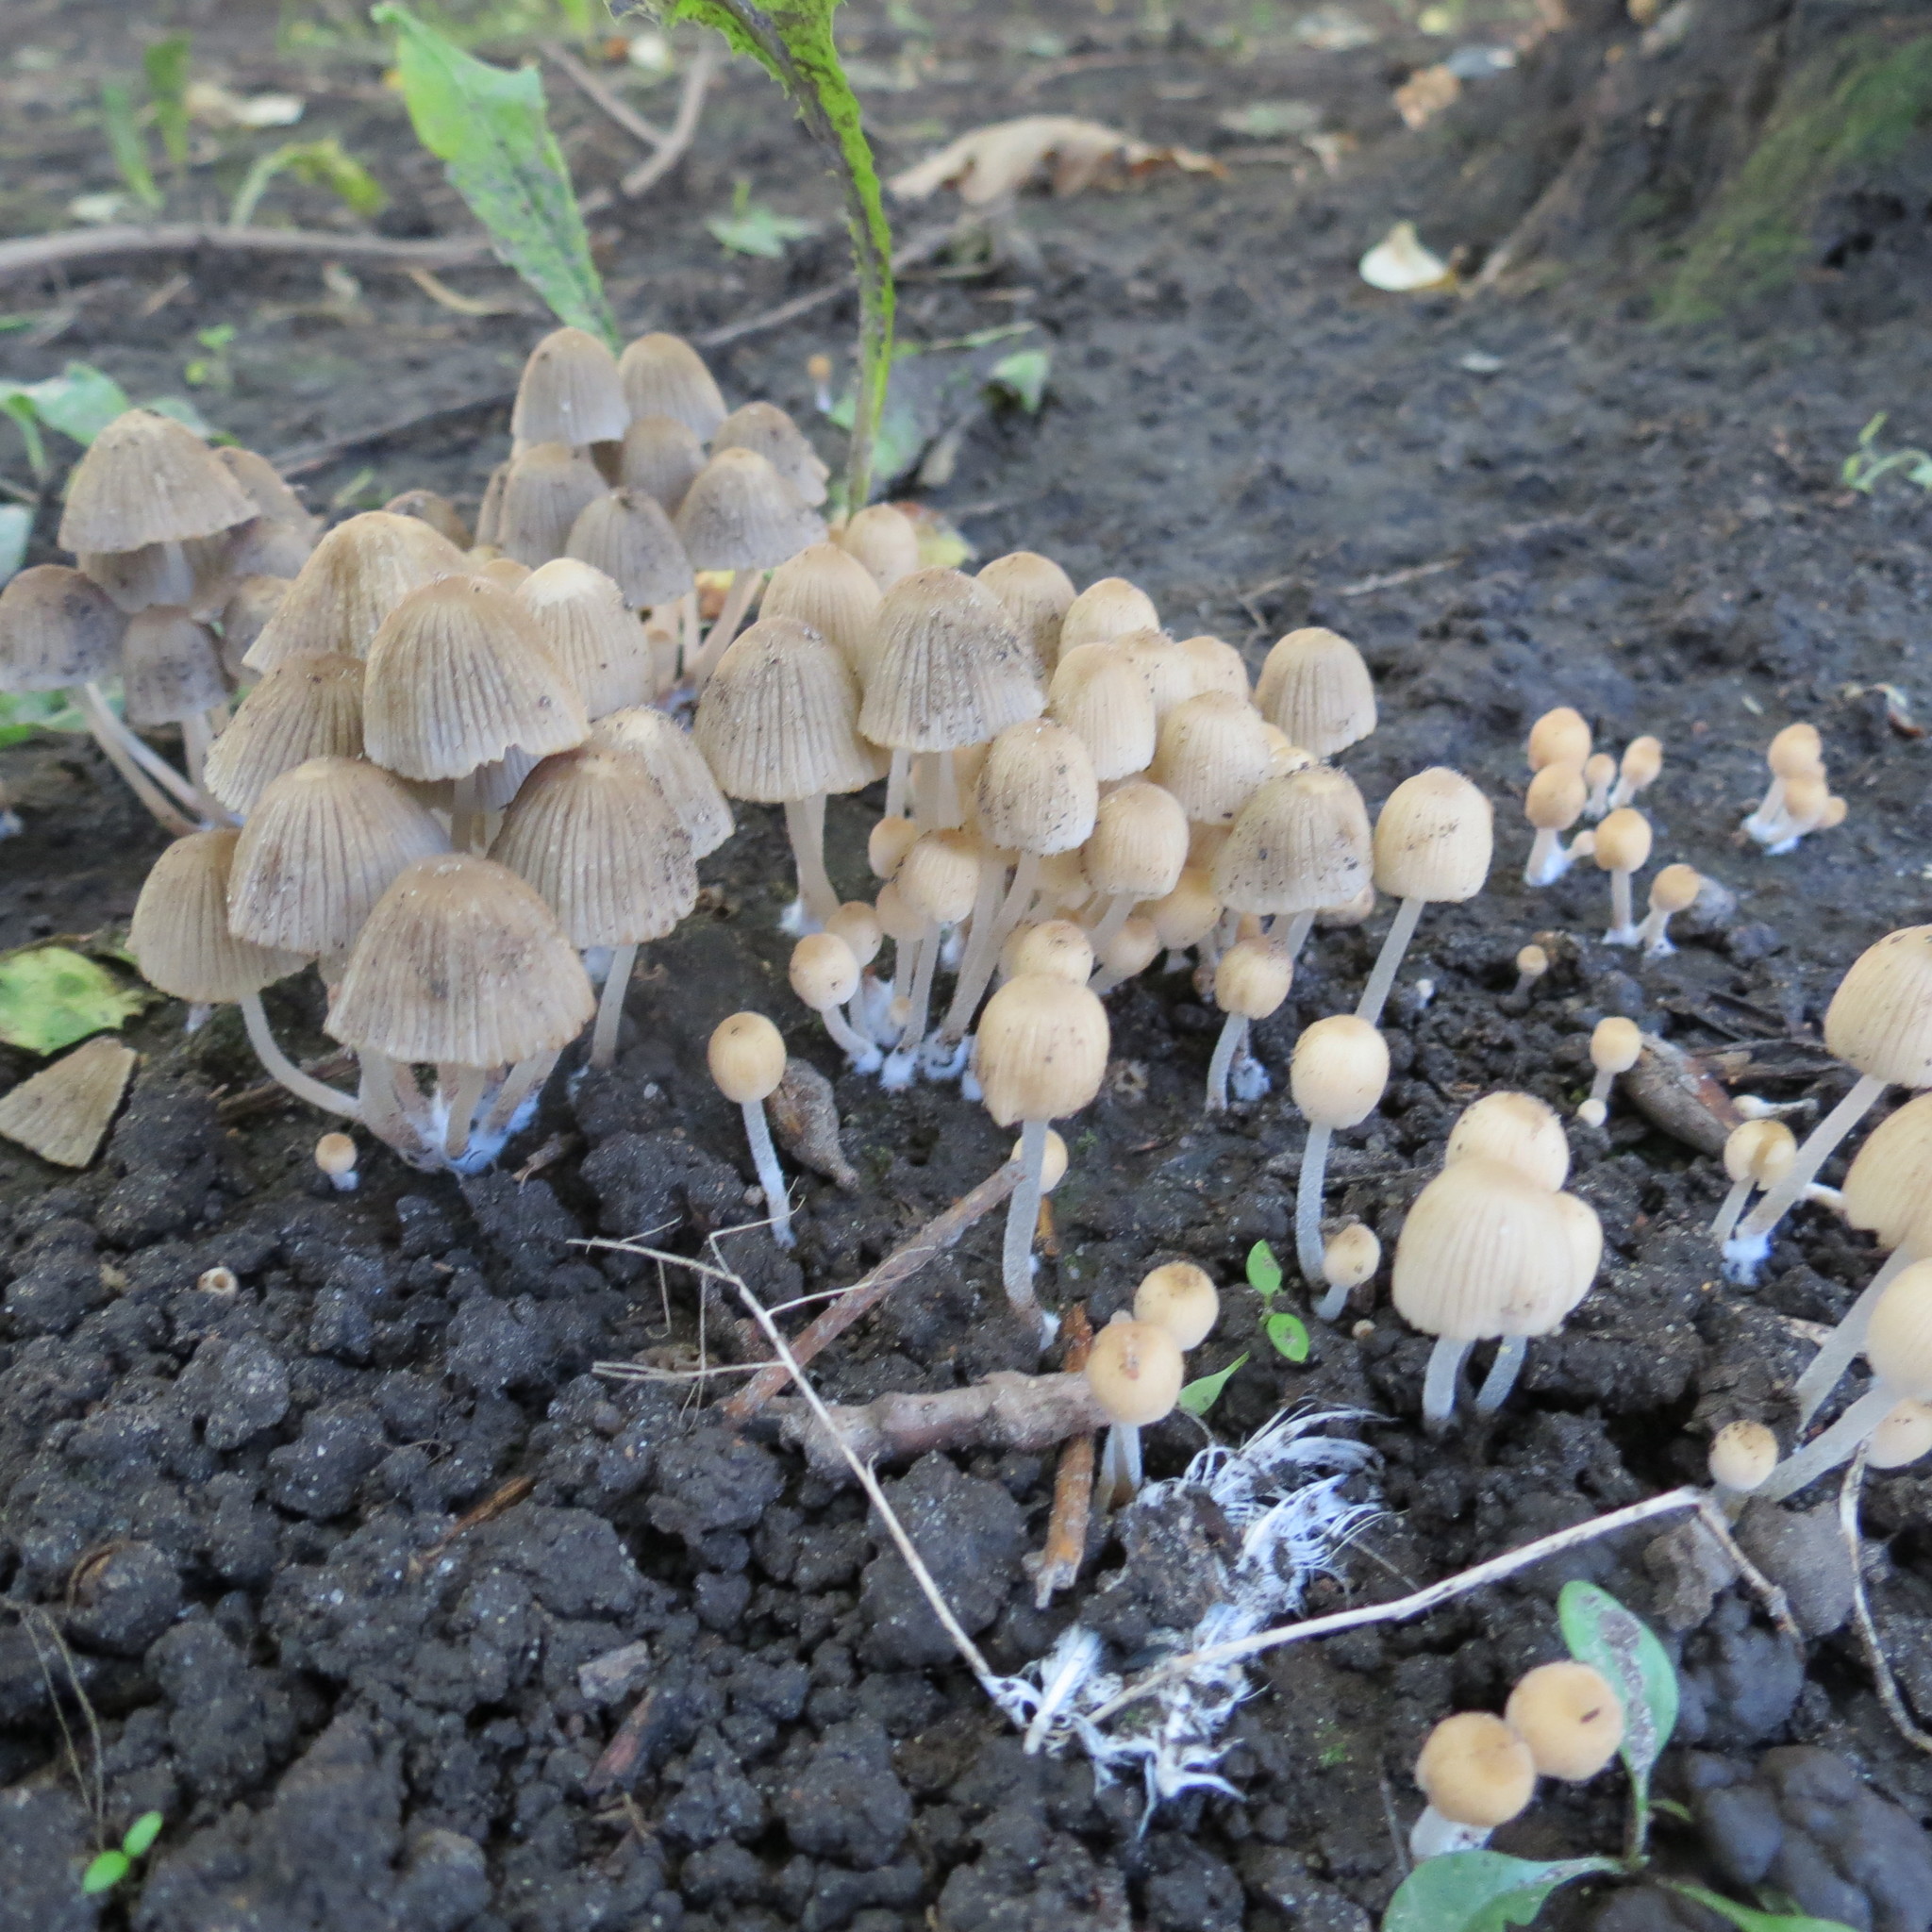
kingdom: Fungi
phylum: Basidiomycota
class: Agaricomycetes
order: Agaricales
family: Psathyrellaceae
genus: Coprinellus
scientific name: Coprinellus disseminatus
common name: Fairies' bonnets
